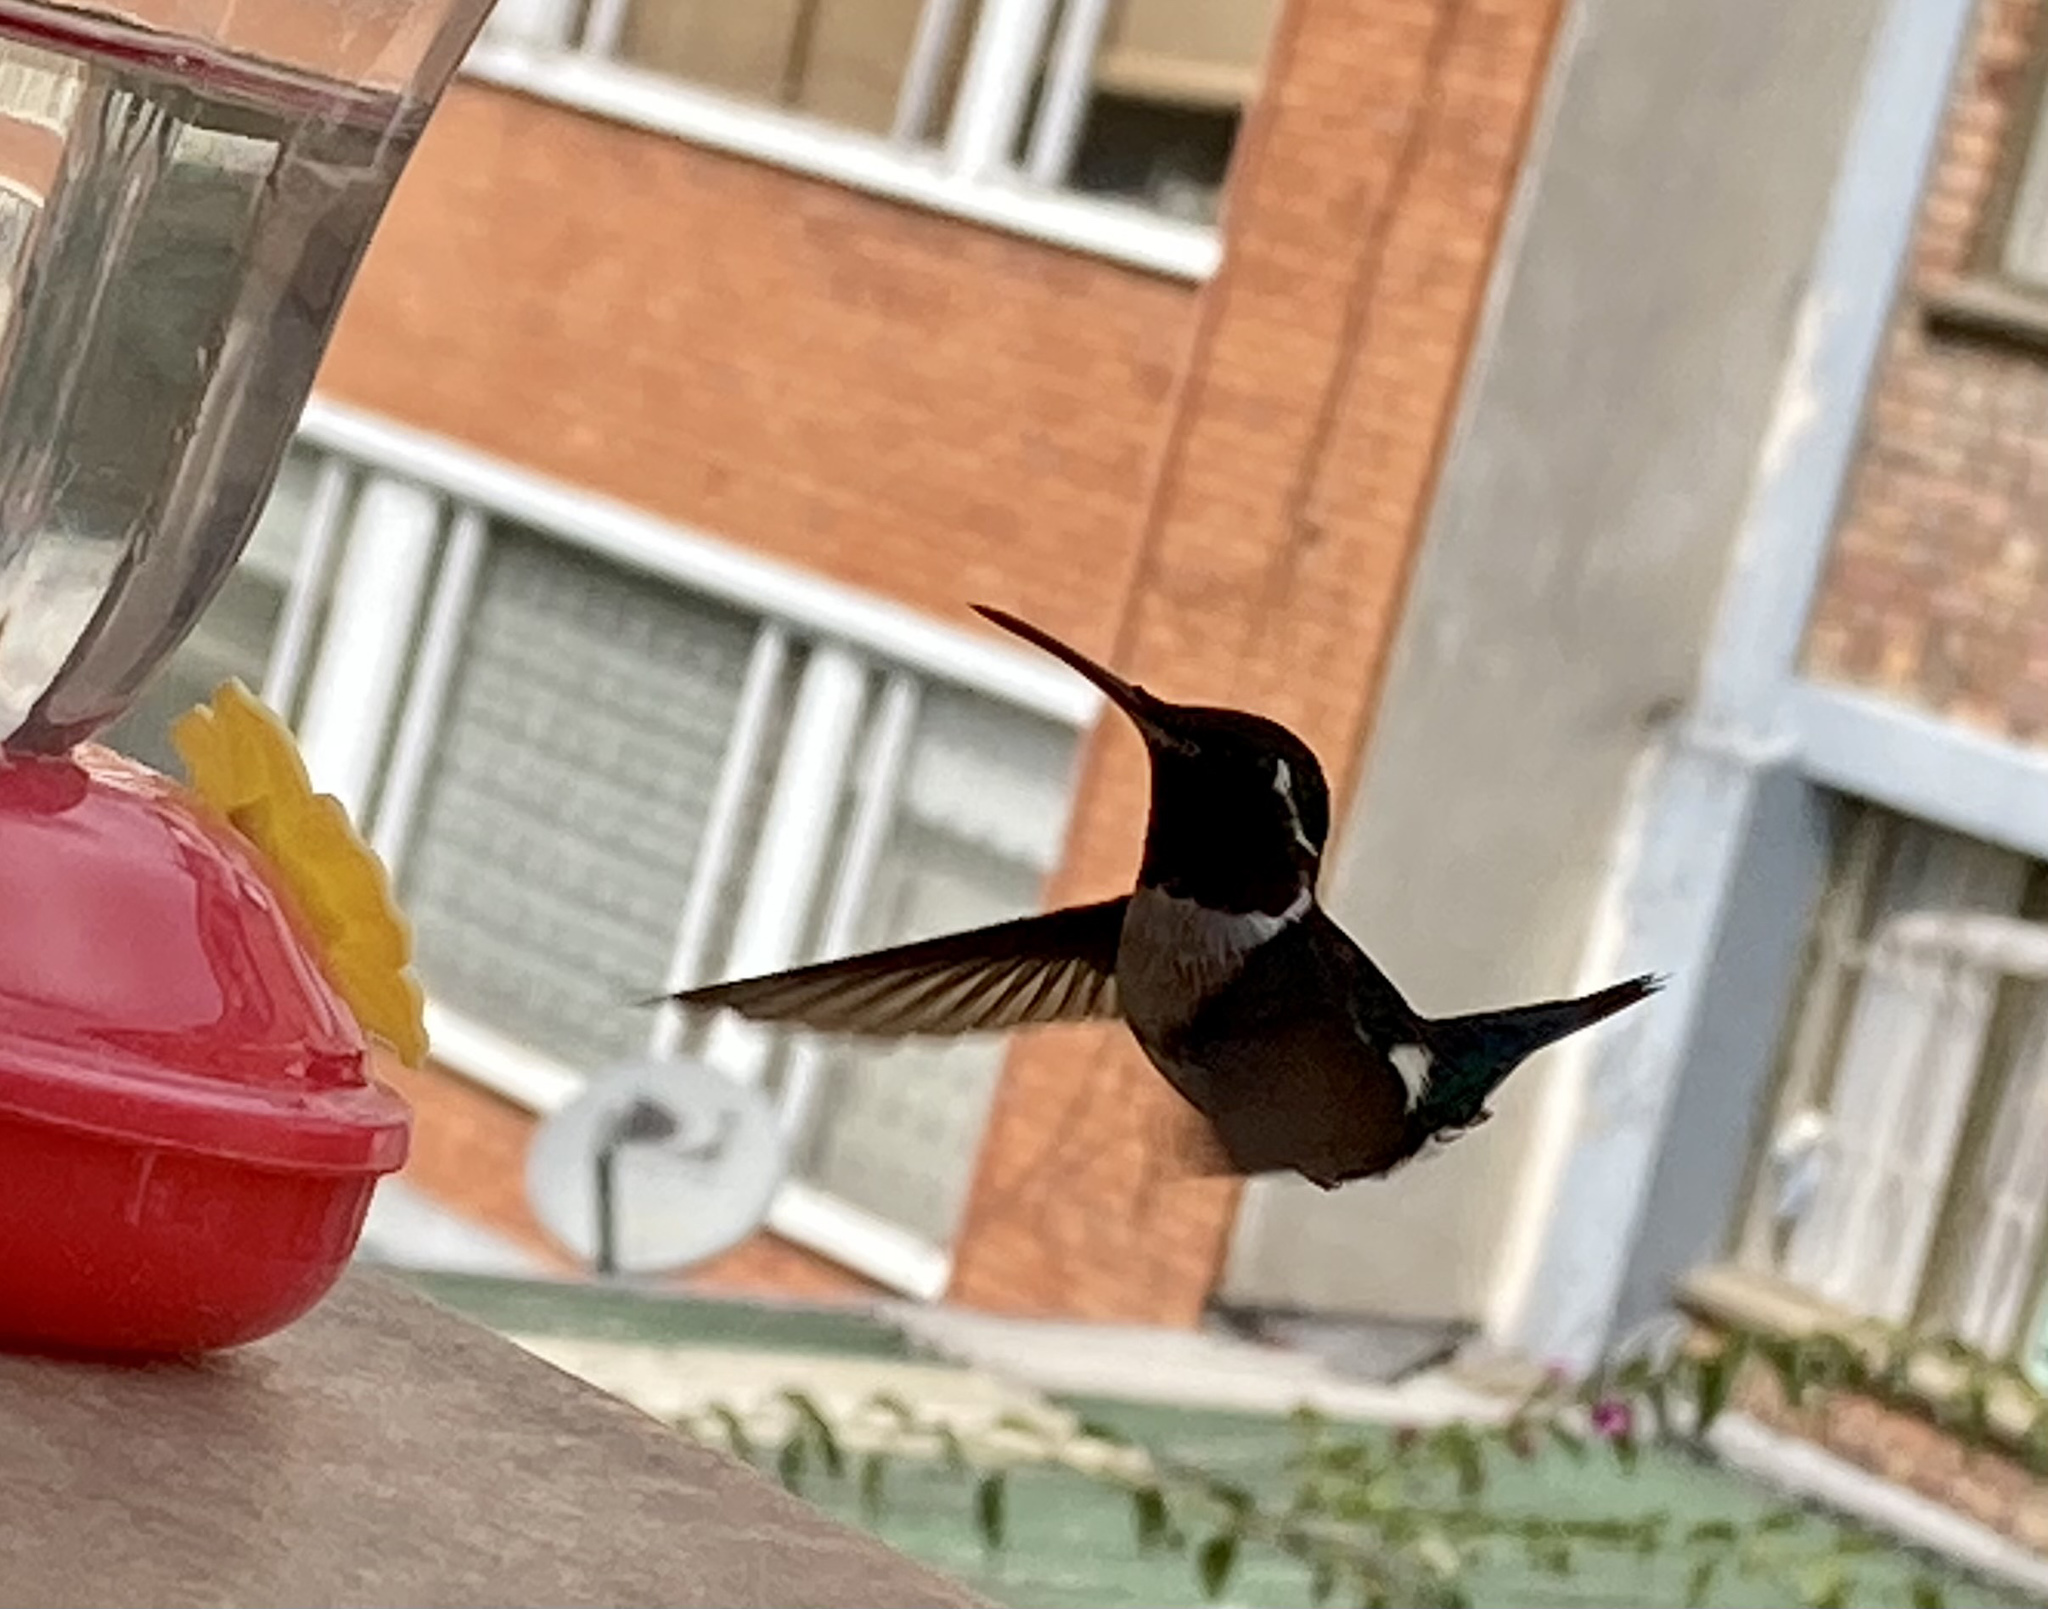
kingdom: Animalia
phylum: Chordata
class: Aves
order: Apodiformes
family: Trochilidae
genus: Chaetocercus
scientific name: Chaetocercus mulsant
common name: White-bellied woodstar
